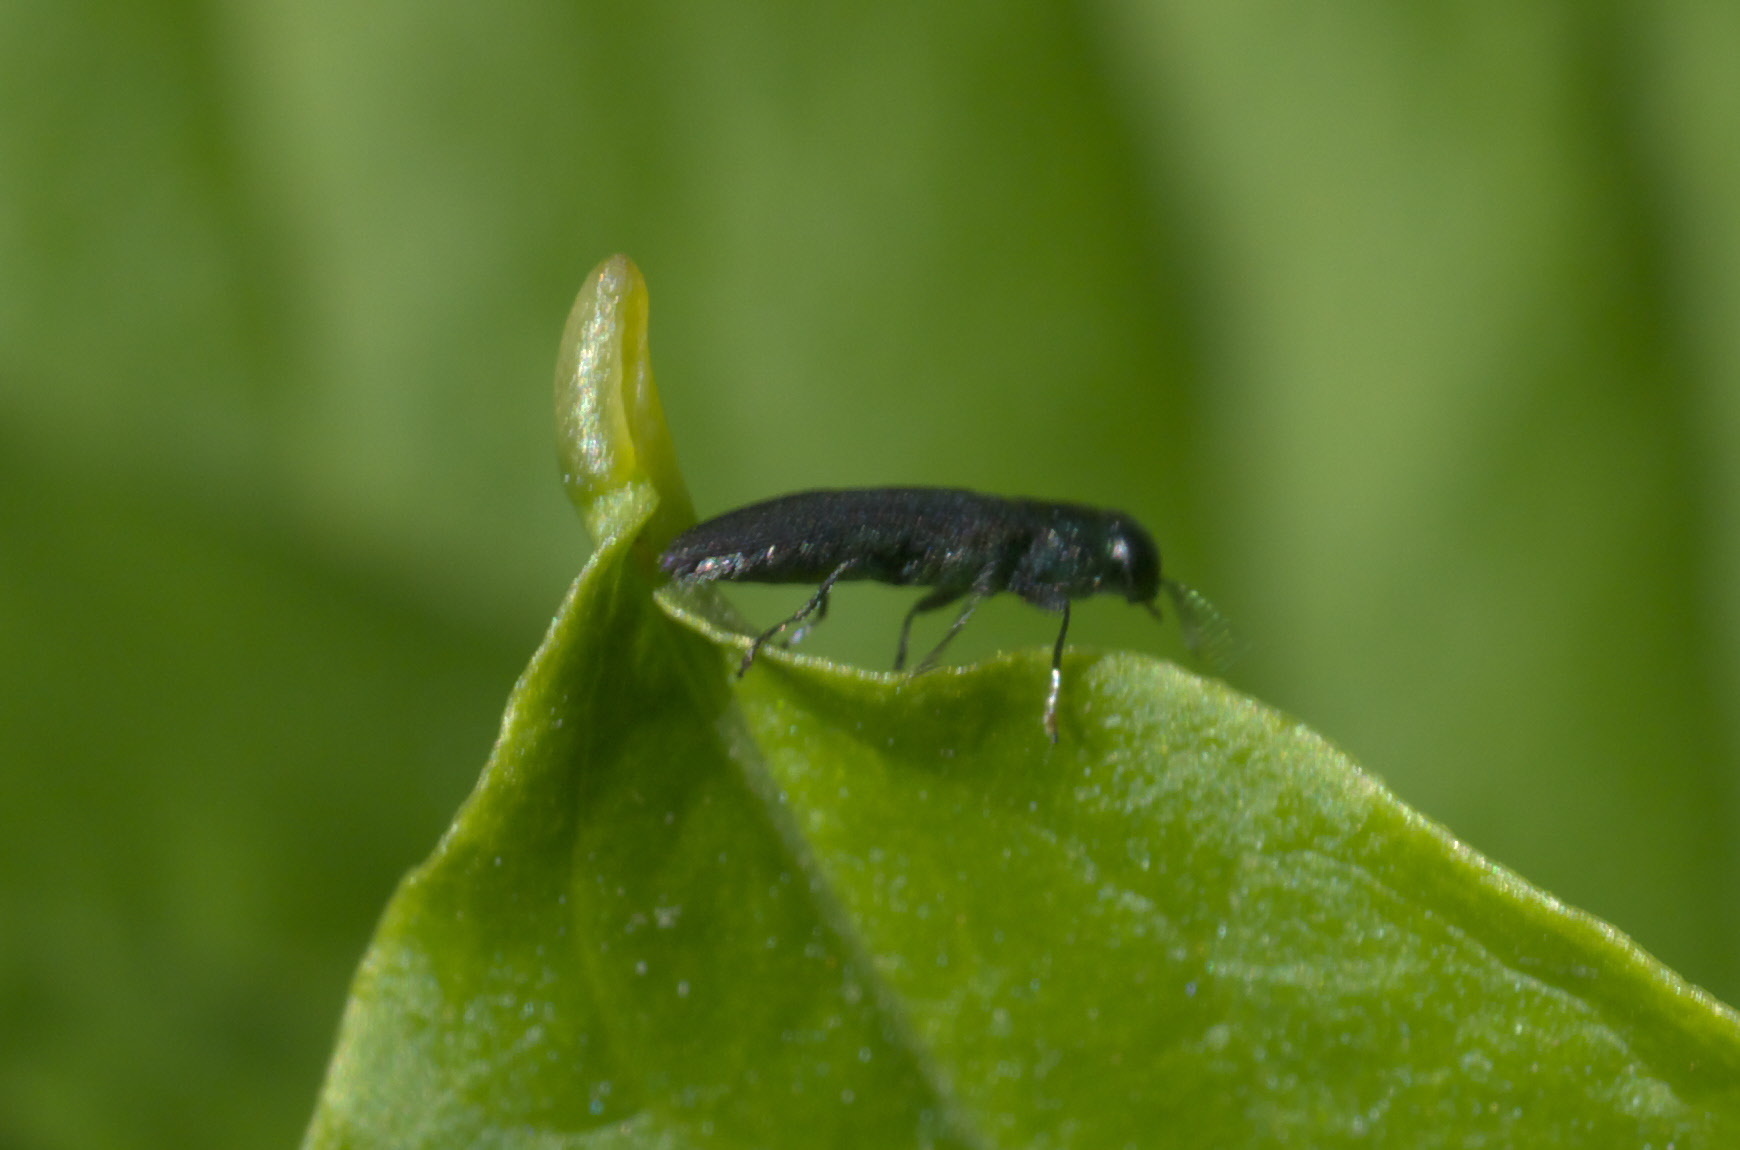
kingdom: Animalia
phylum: Arthropoda
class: Insecta
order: Coleoptera
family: Buprestidae
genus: Agrilaxia
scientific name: Agrilaxia flavimana
